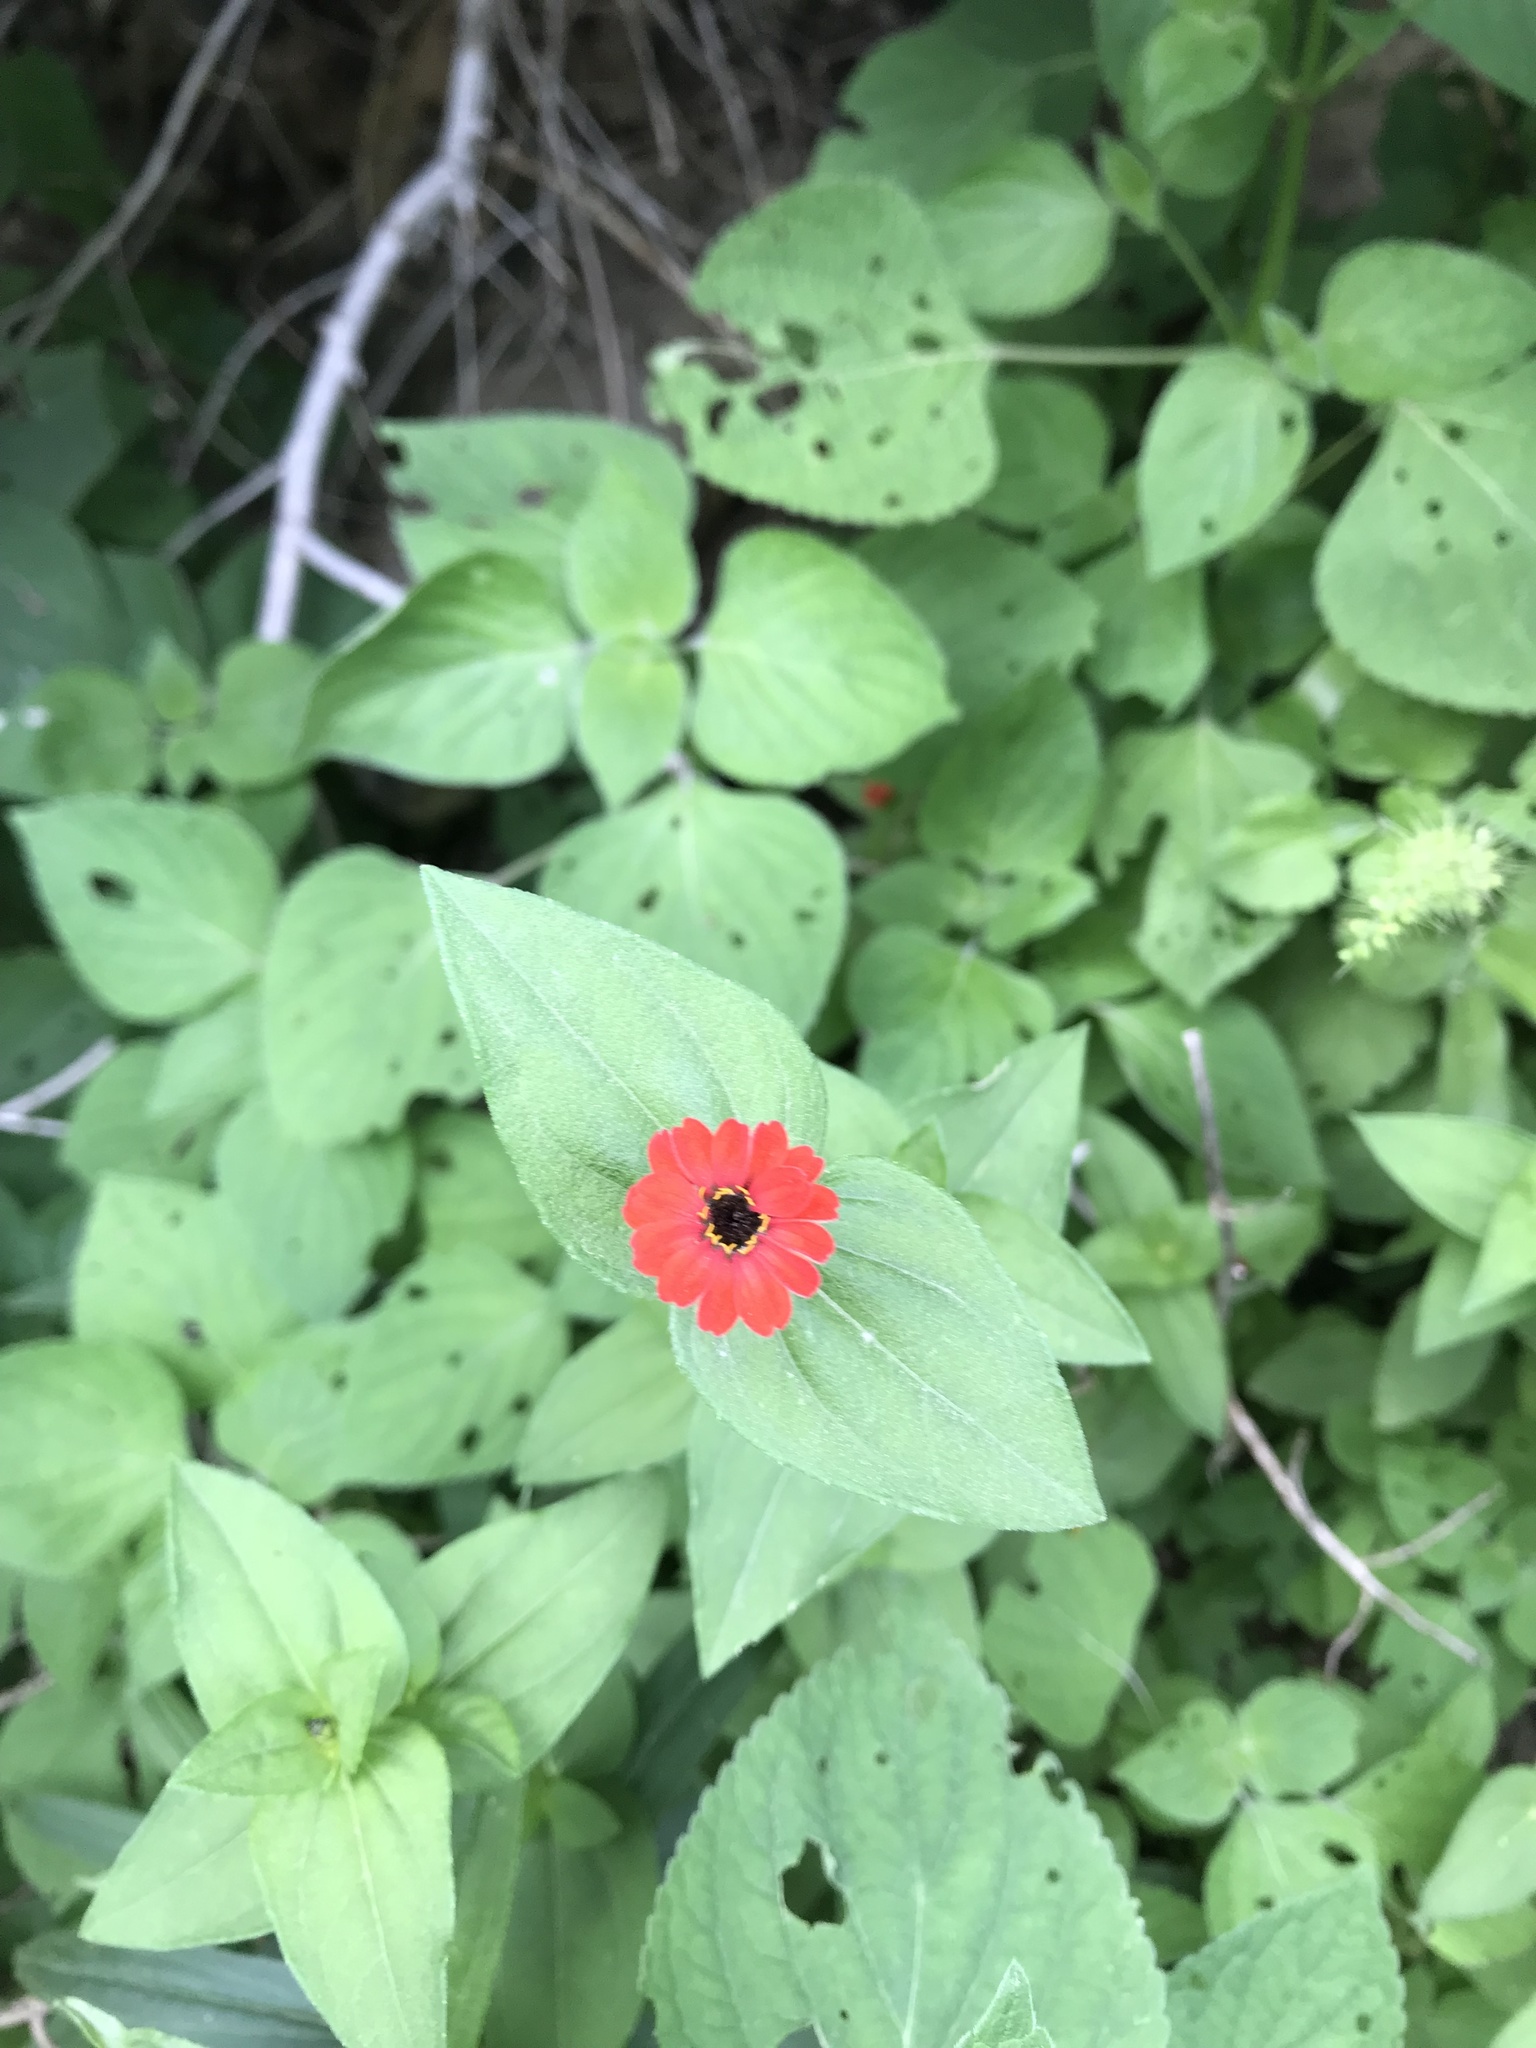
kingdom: Plantae
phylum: Tracheophyta
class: Magnoliopsida
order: Asterales
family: Asteraceae
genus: Zinnia
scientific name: Zinnia peruviana
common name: Peruvian zinnia
